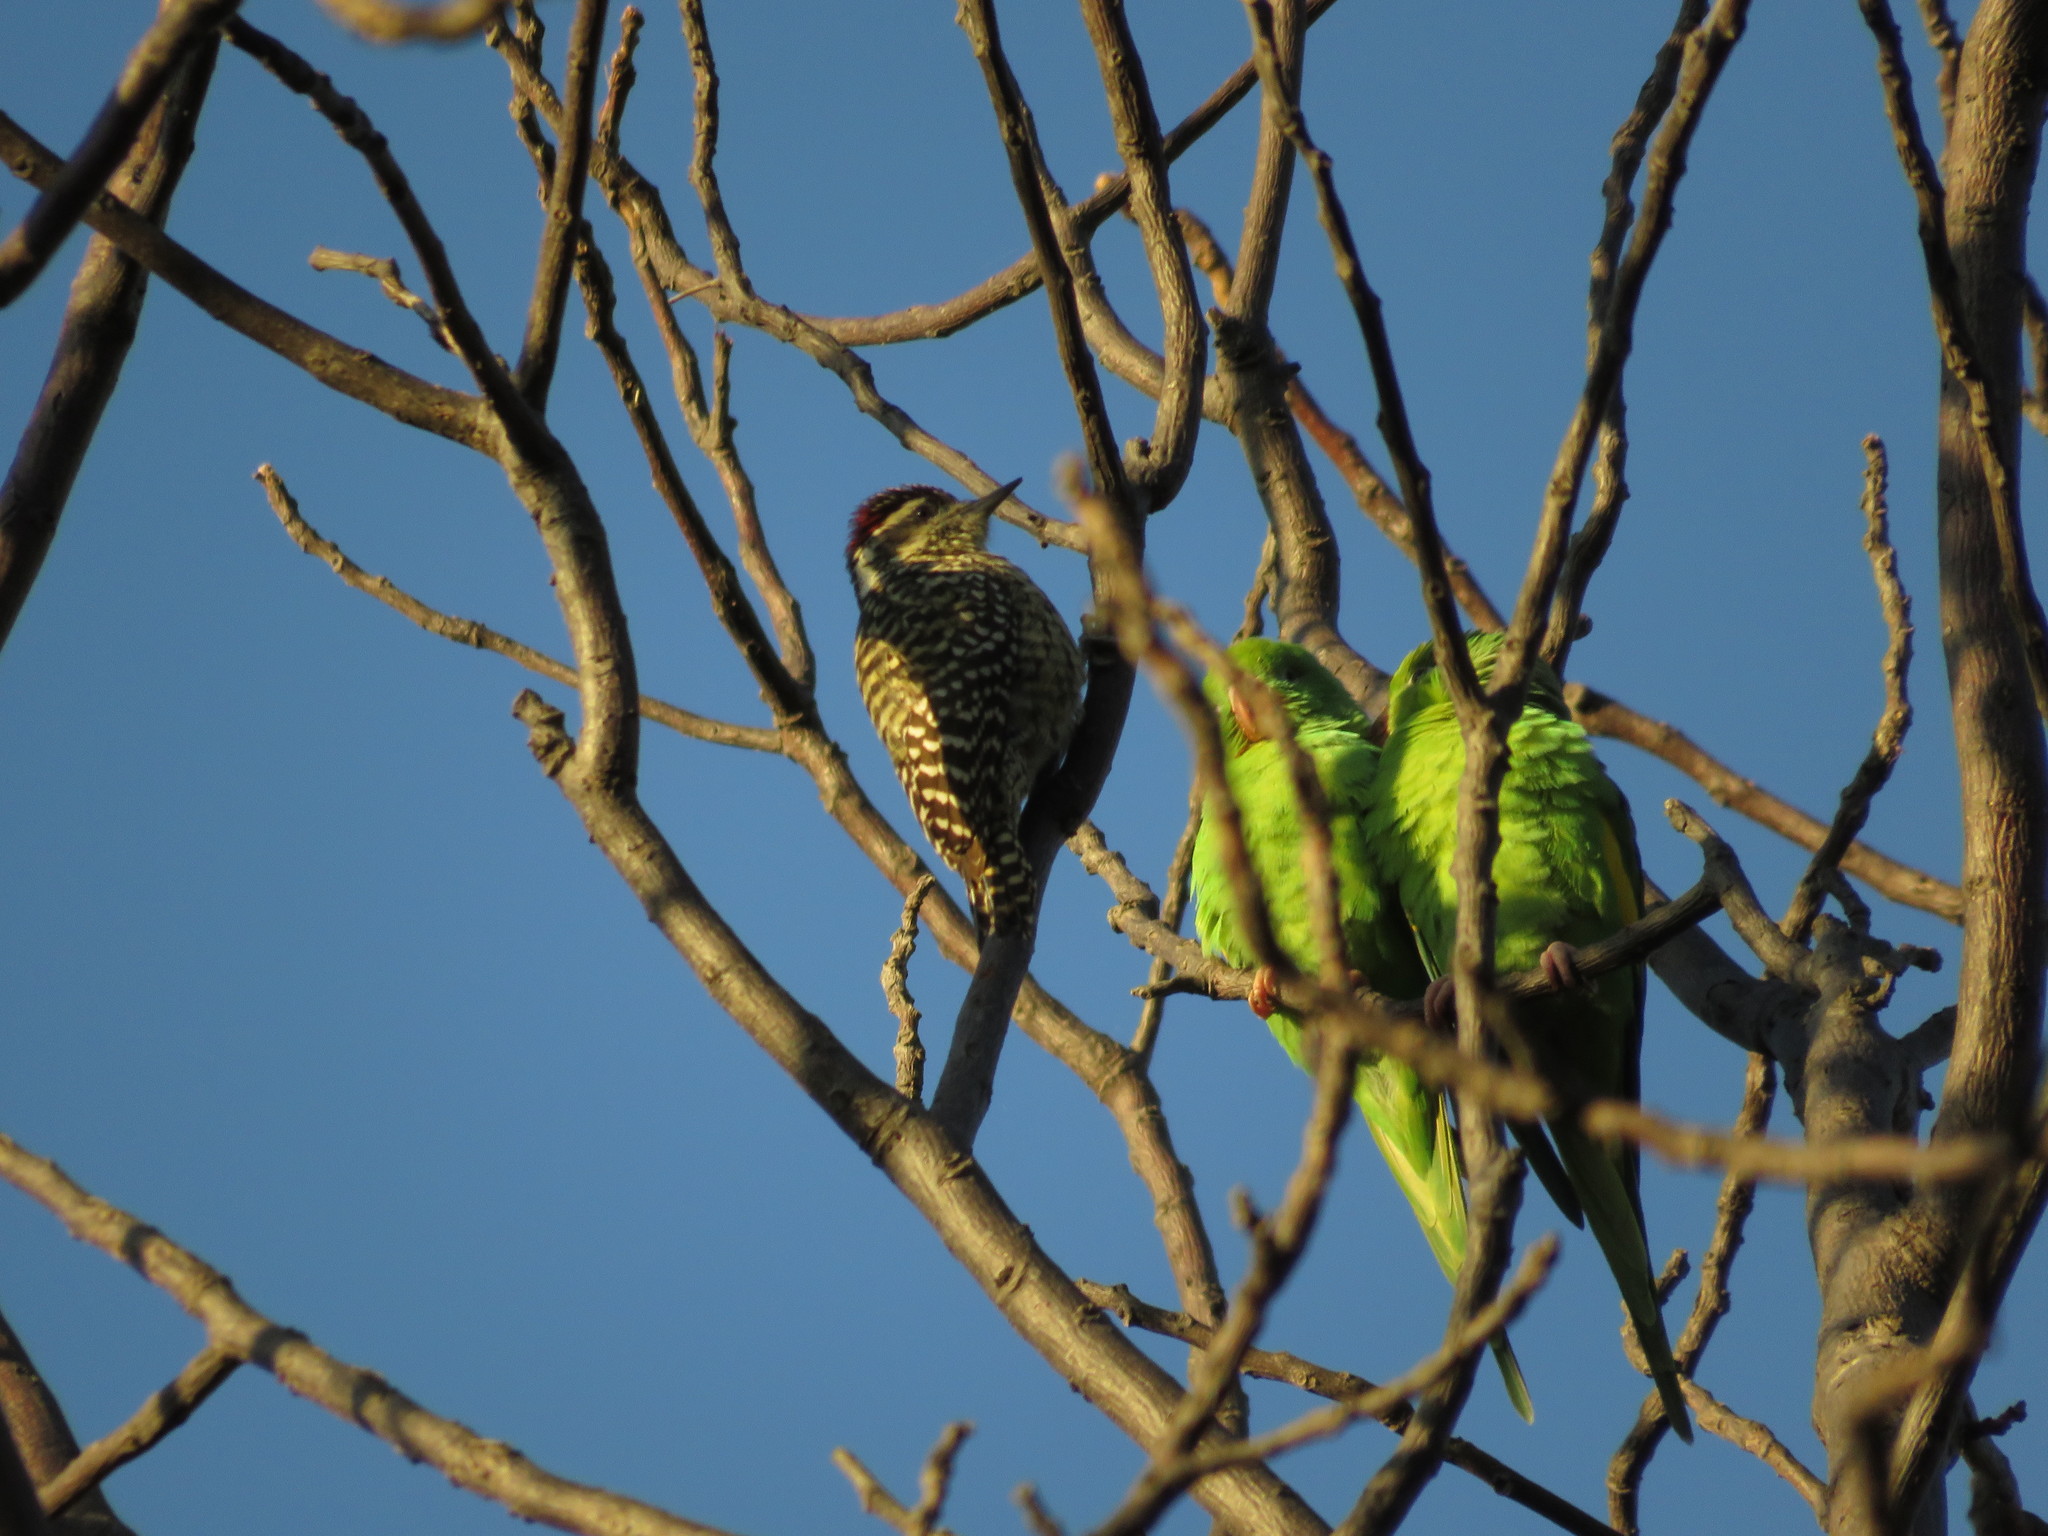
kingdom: Animalia
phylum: Chordata
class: Aves
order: Piciformes
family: Picidae
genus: Veniliornis
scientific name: Veniliornis mixtus
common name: Checkered woodpecker
